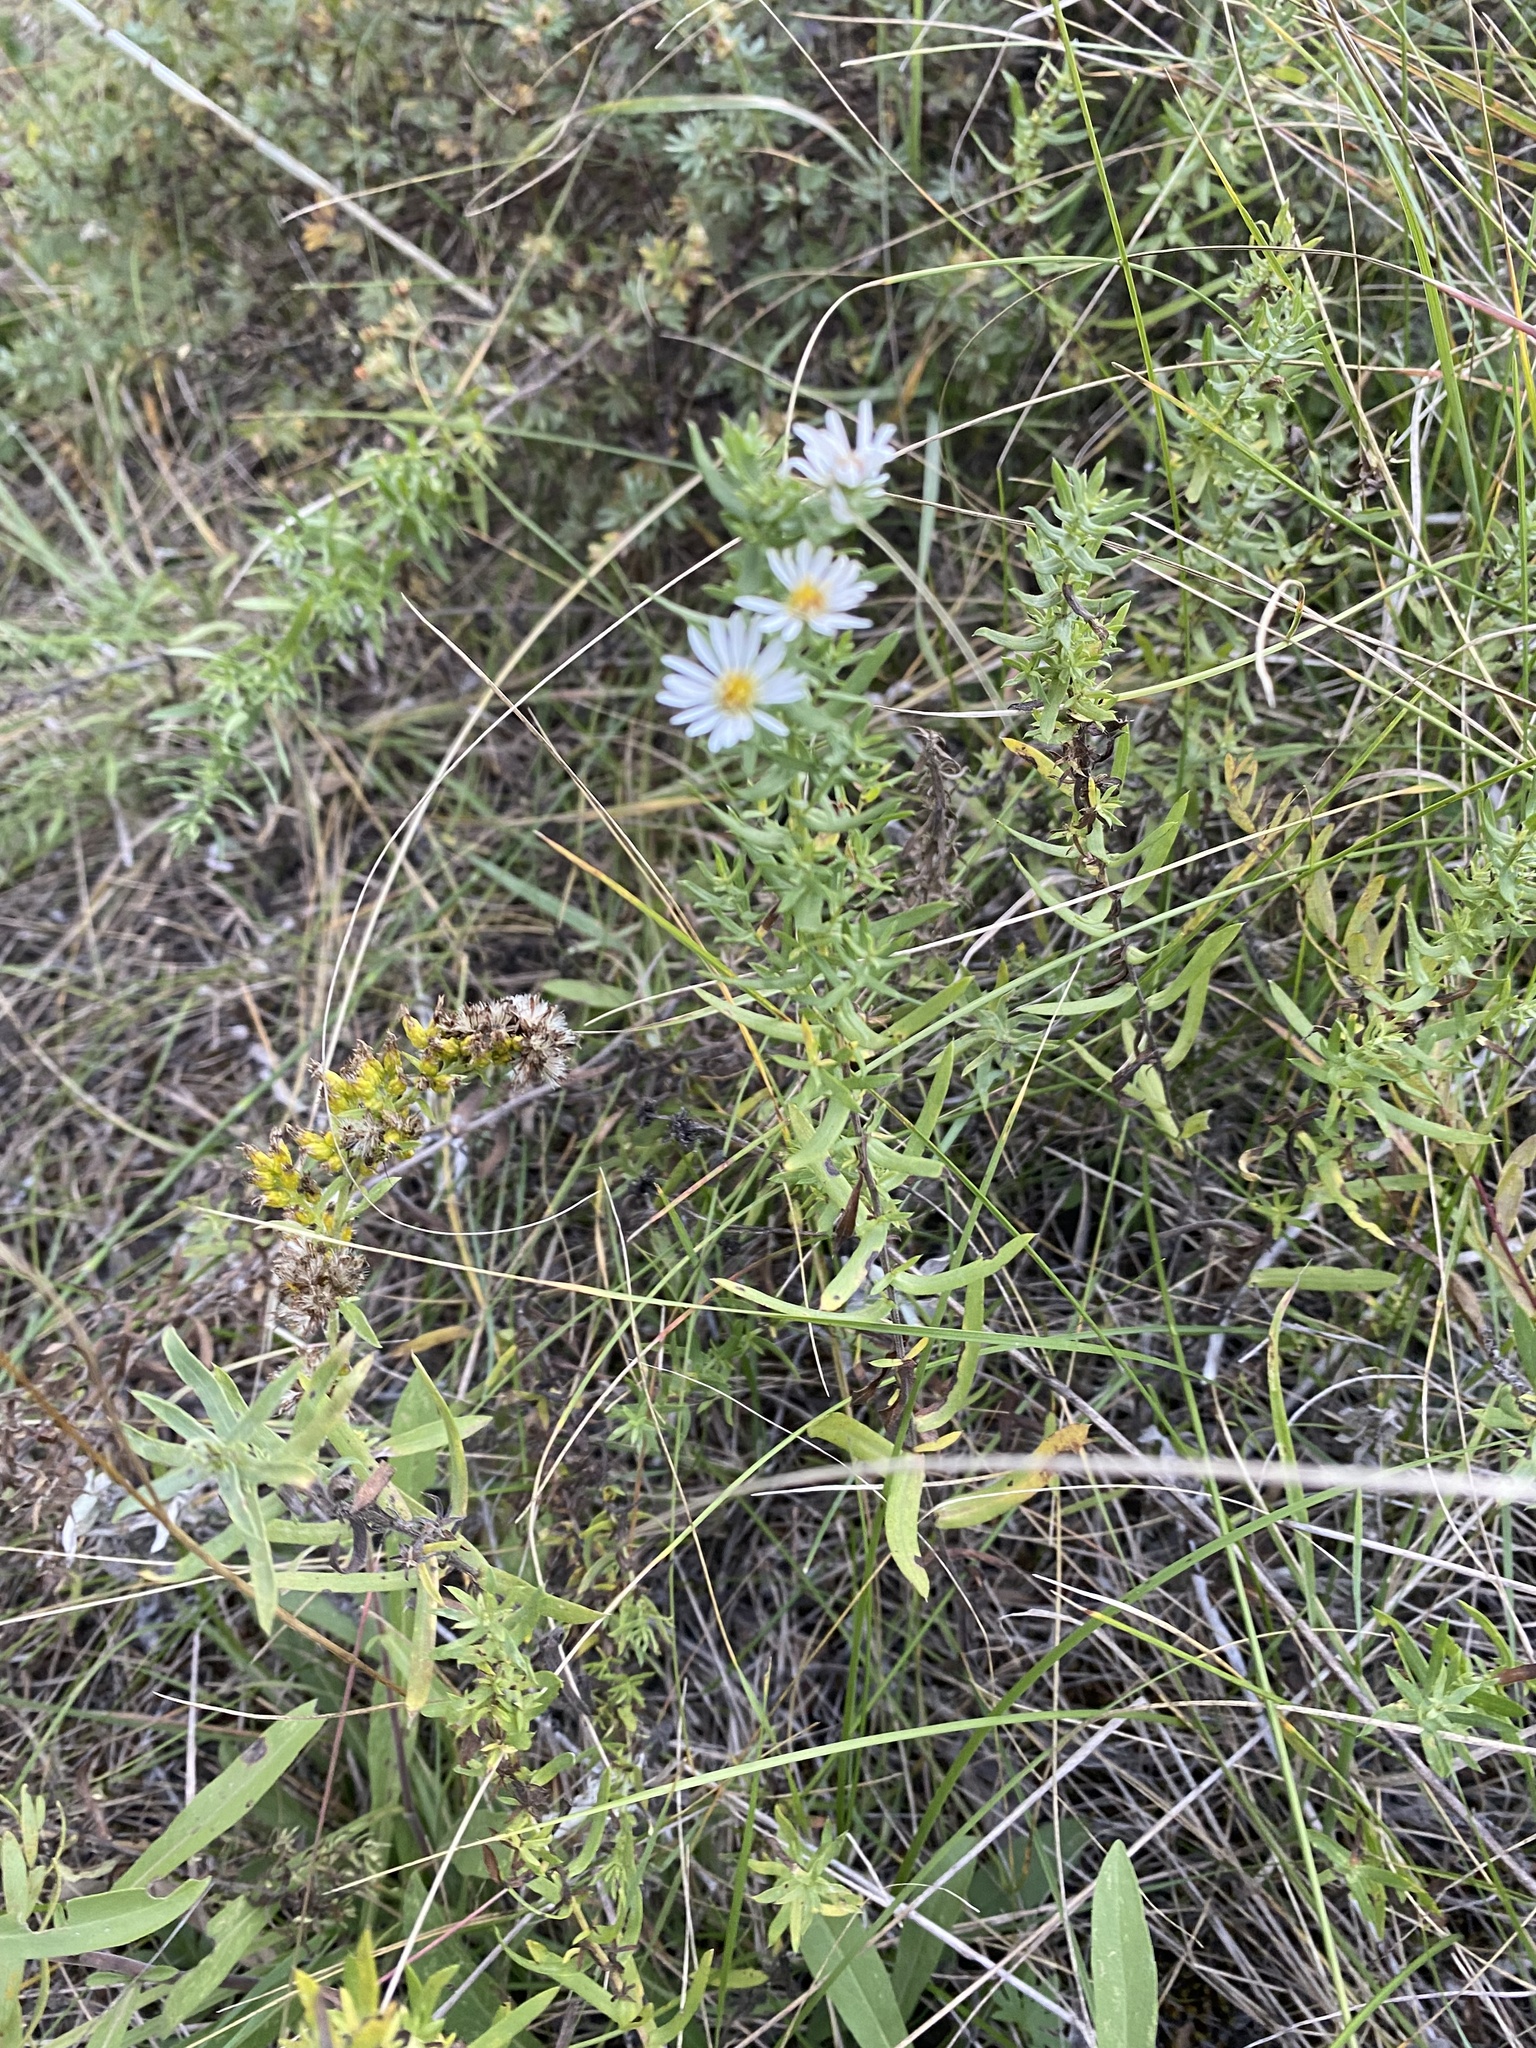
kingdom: Plantae
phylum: Tracheophyta
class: Magnoliopsida
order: Asterales
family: Asteraceae
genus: Symphyotrichum
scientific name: Symphyotrichum ericoides
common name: Heath aster
